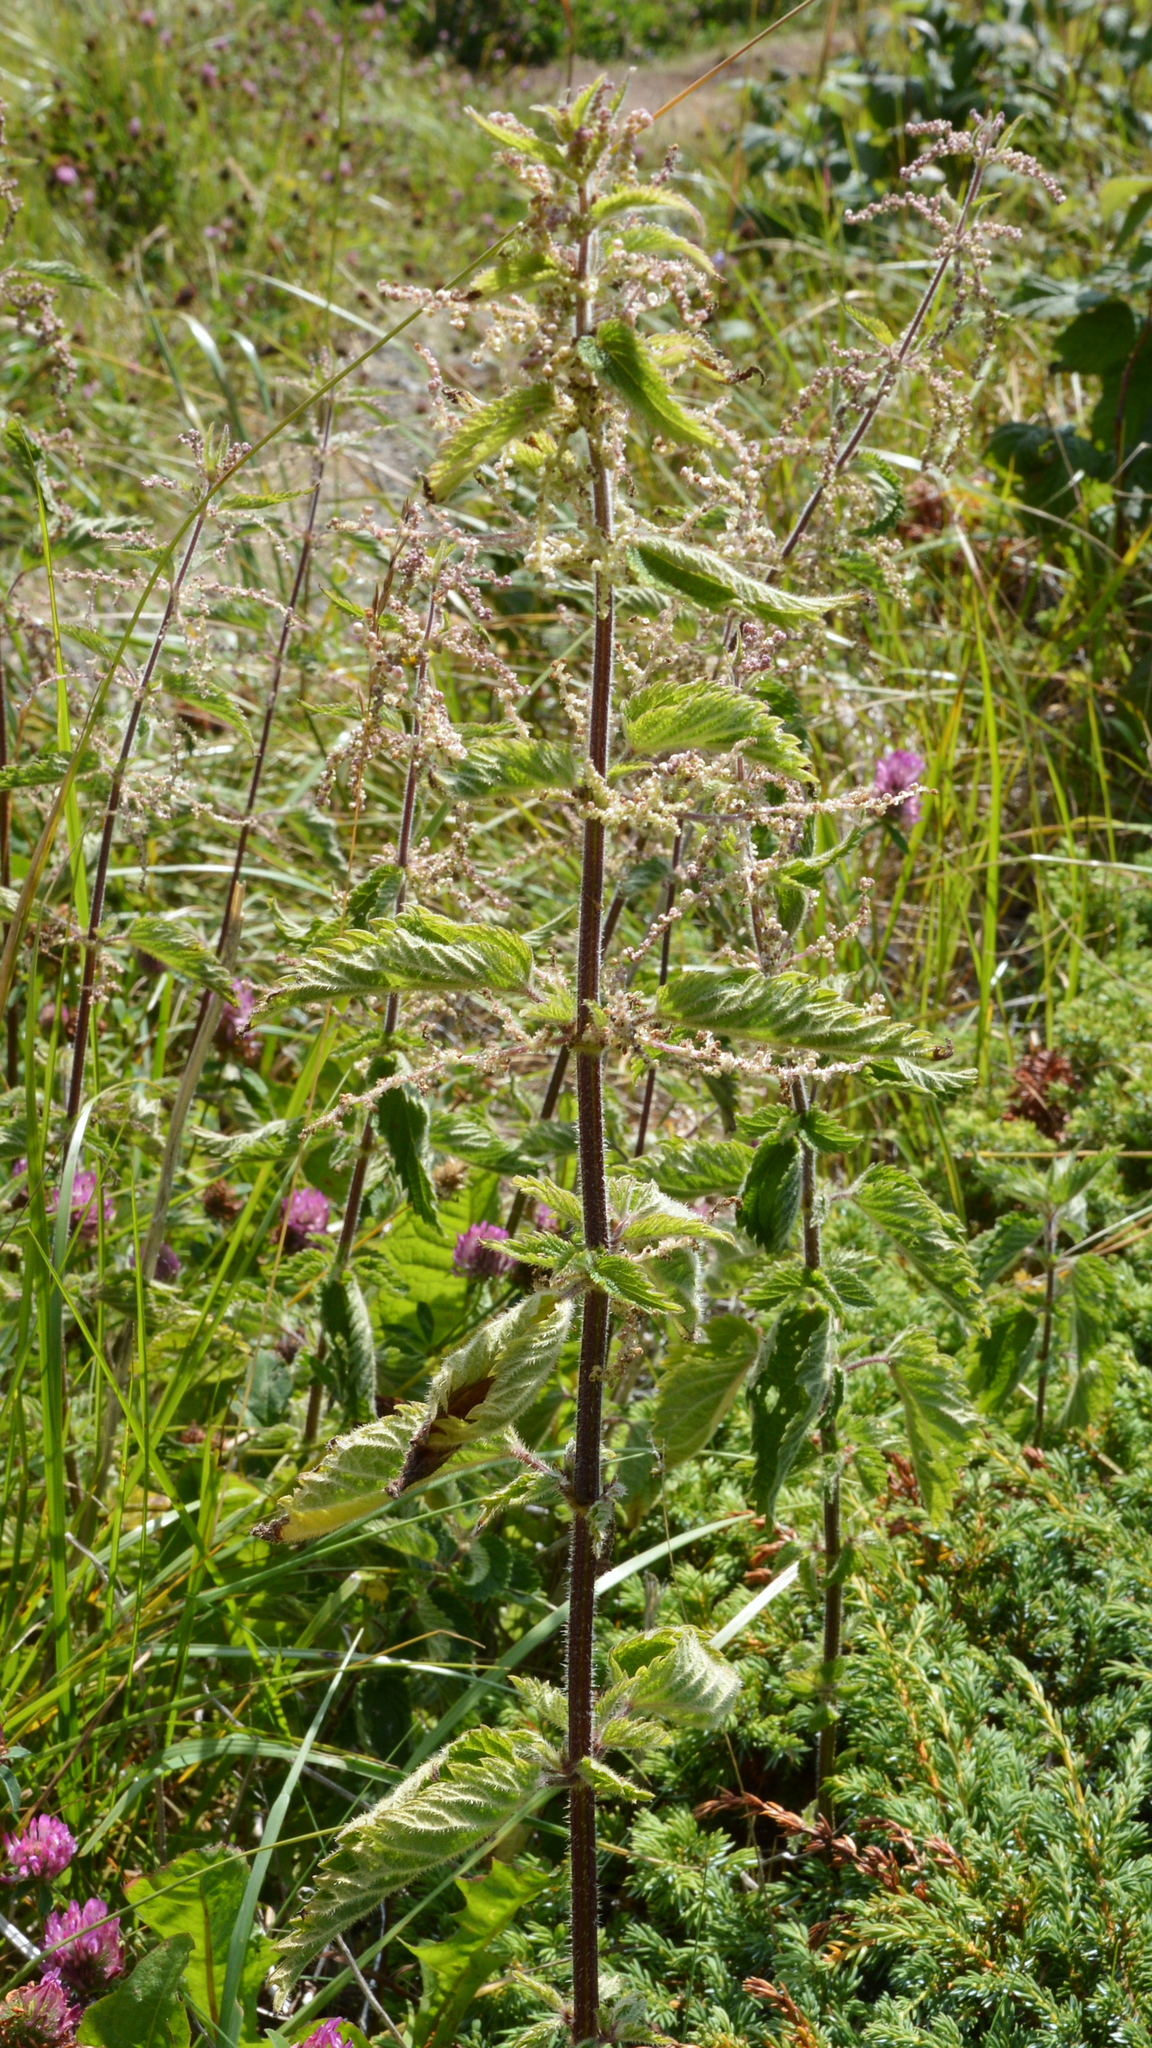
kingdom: Plantae
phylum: Tracheophyta
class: Magnoliopsida
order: Rosales
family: Urticaceae
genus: Urtica
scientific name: Urtica dioica
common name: Common nettle
